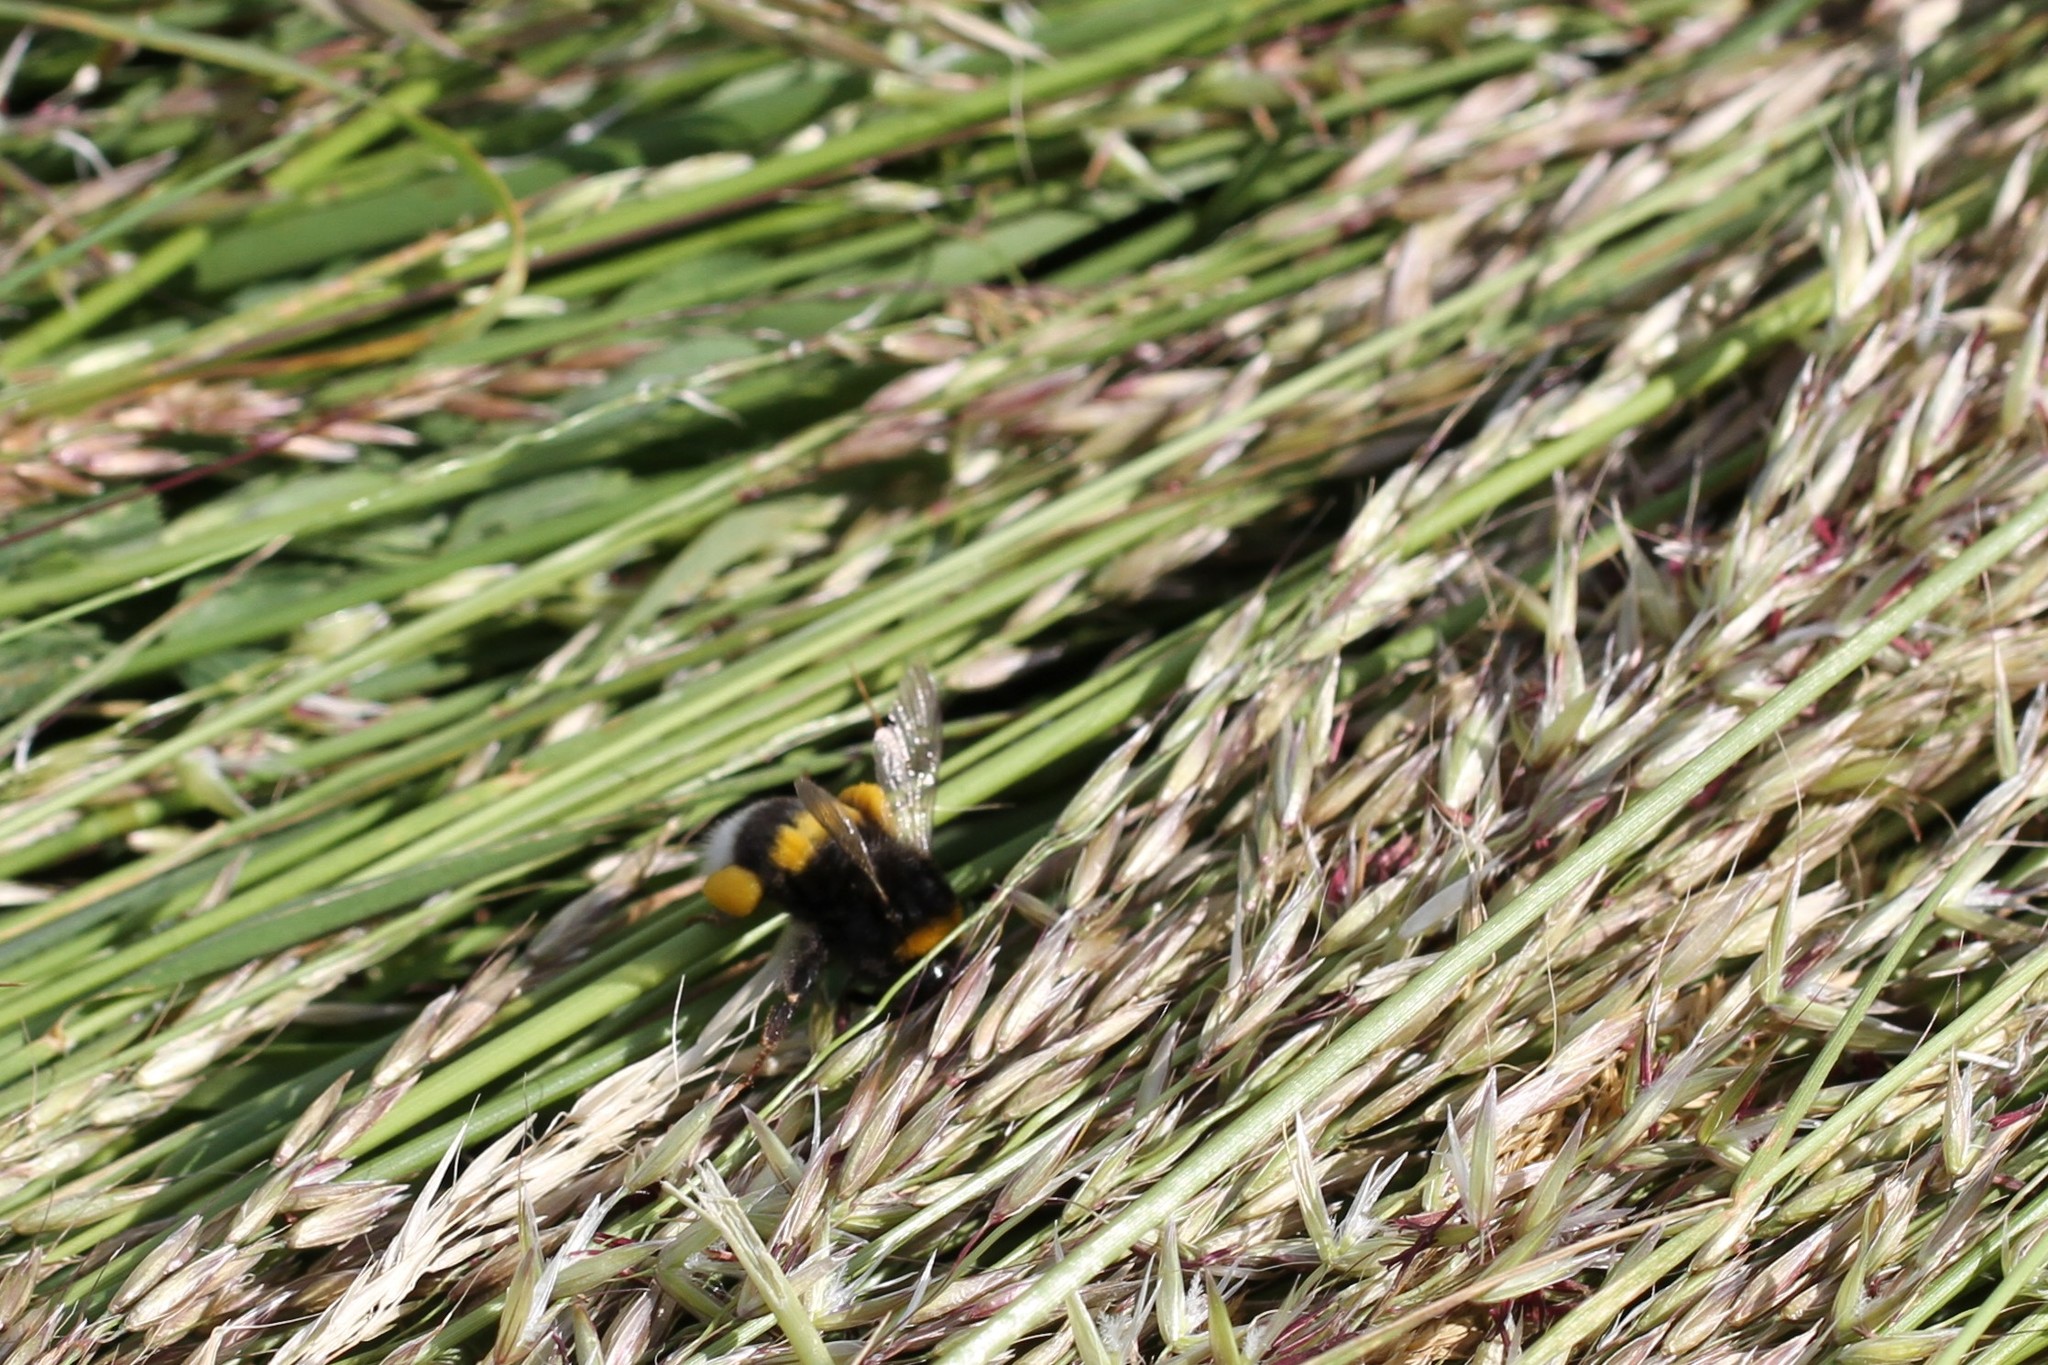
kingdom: Animalia
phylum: Arthropoda
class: Insecta
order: Hymenoptera
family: Apidae
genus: Bombus
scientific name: Bombus
